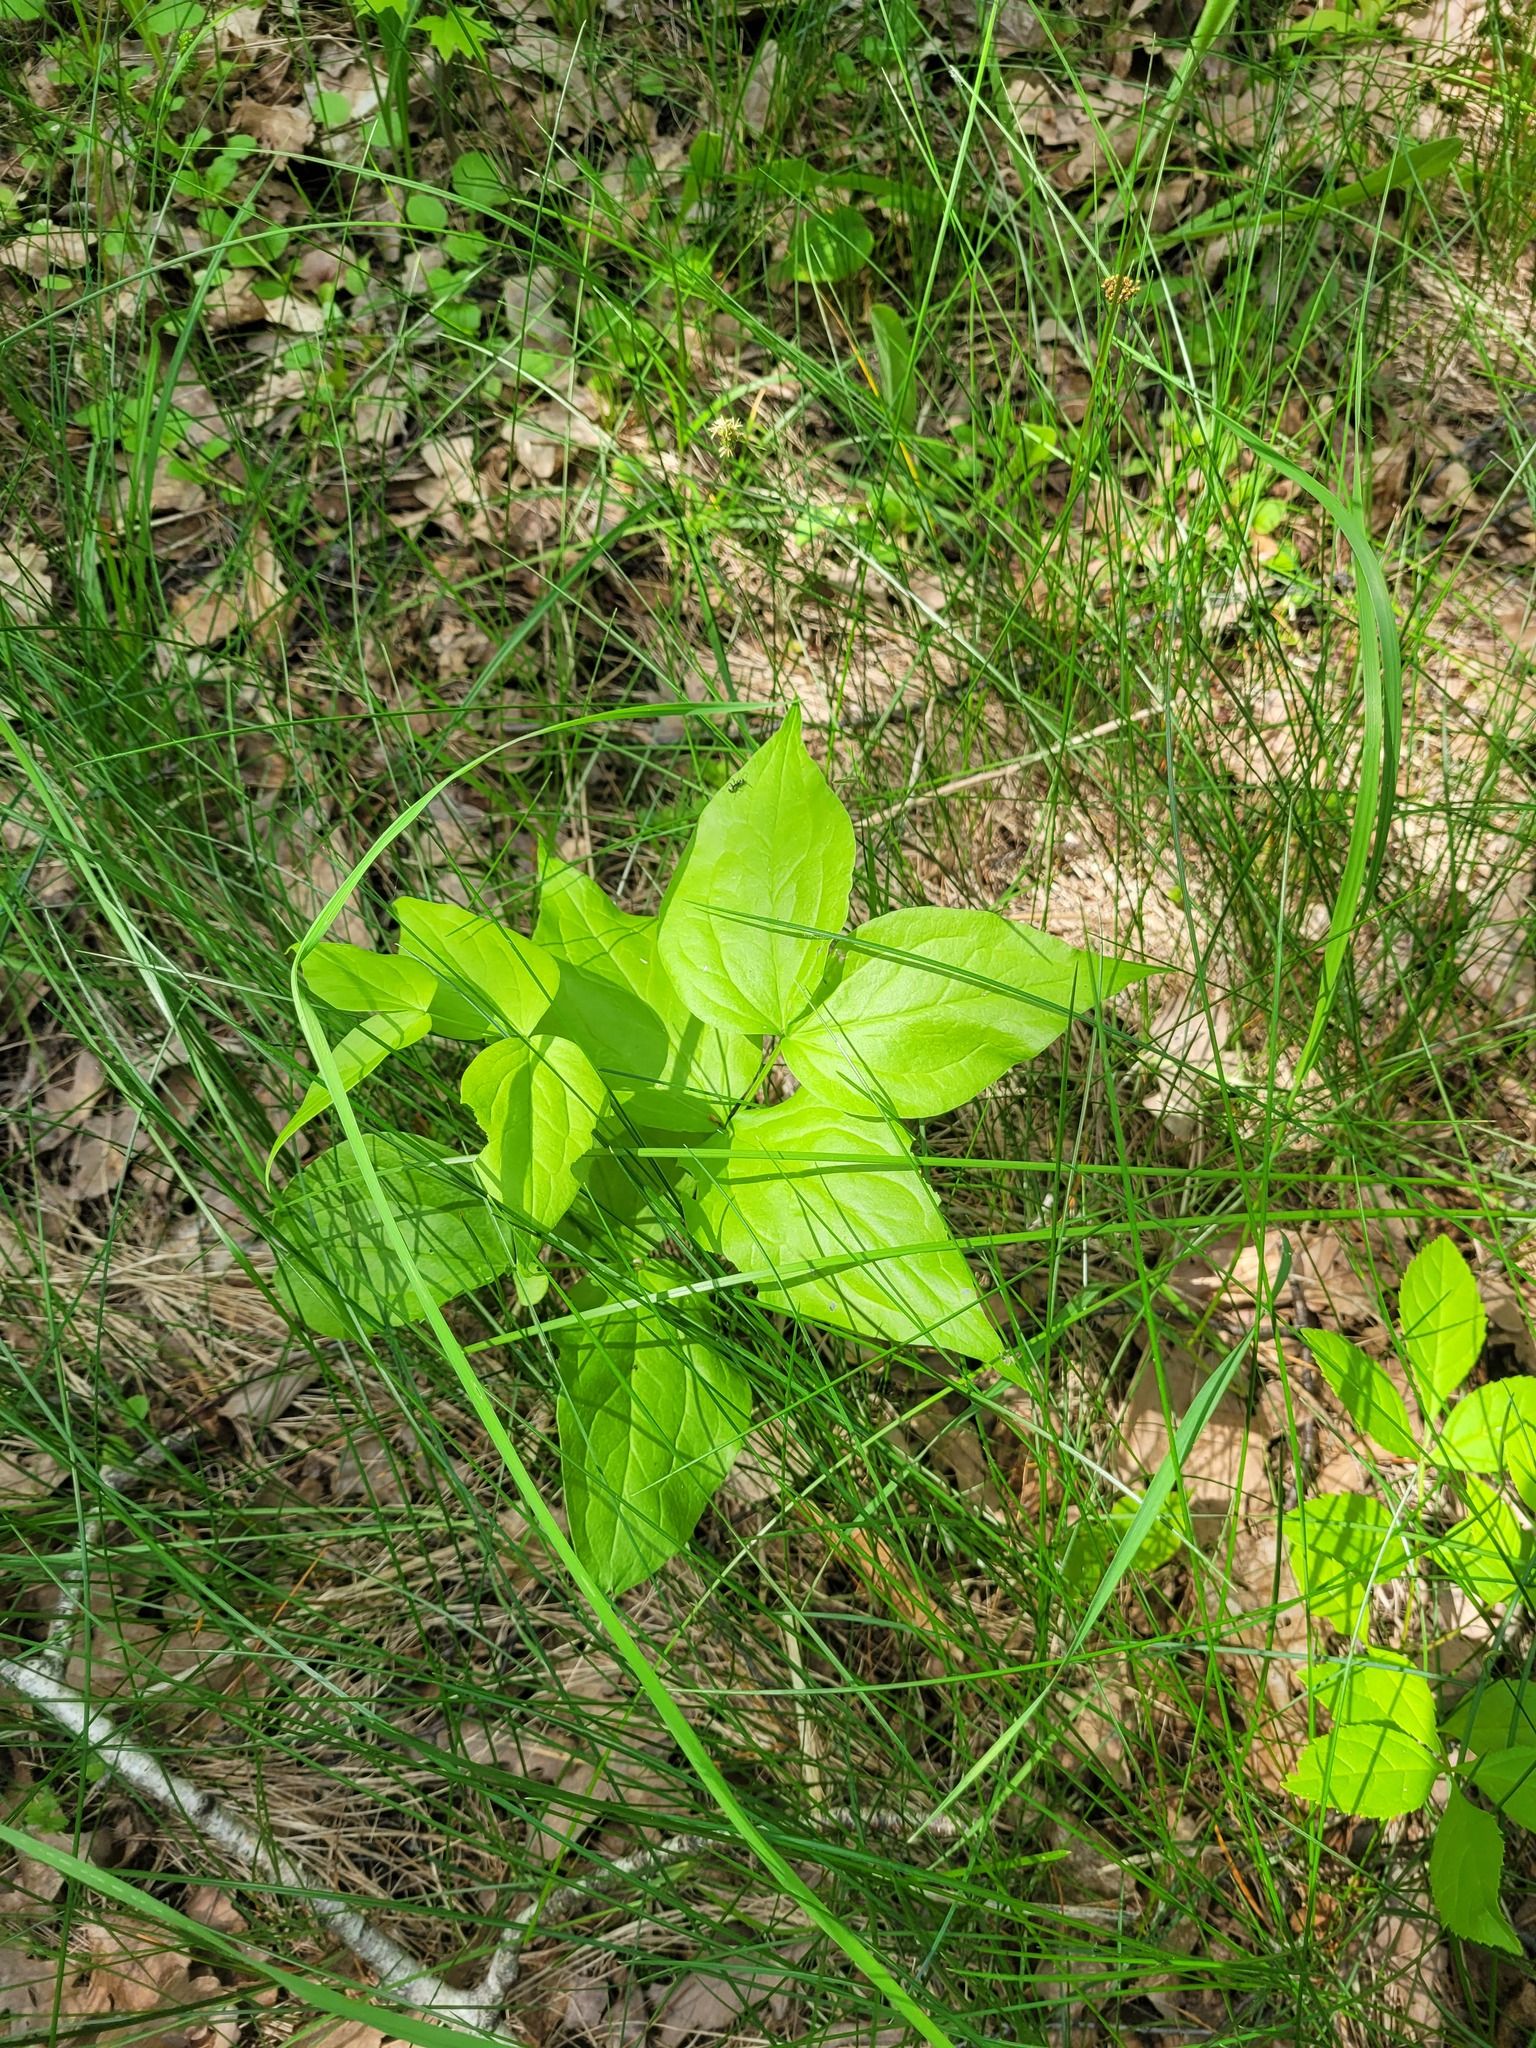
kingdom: Plantae
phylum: Tracheophyta
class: Magnoliopsida
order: Fabales
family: Fabaceae
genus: Lathyrus
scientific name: Lathyrus vernus
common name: Spring pea
